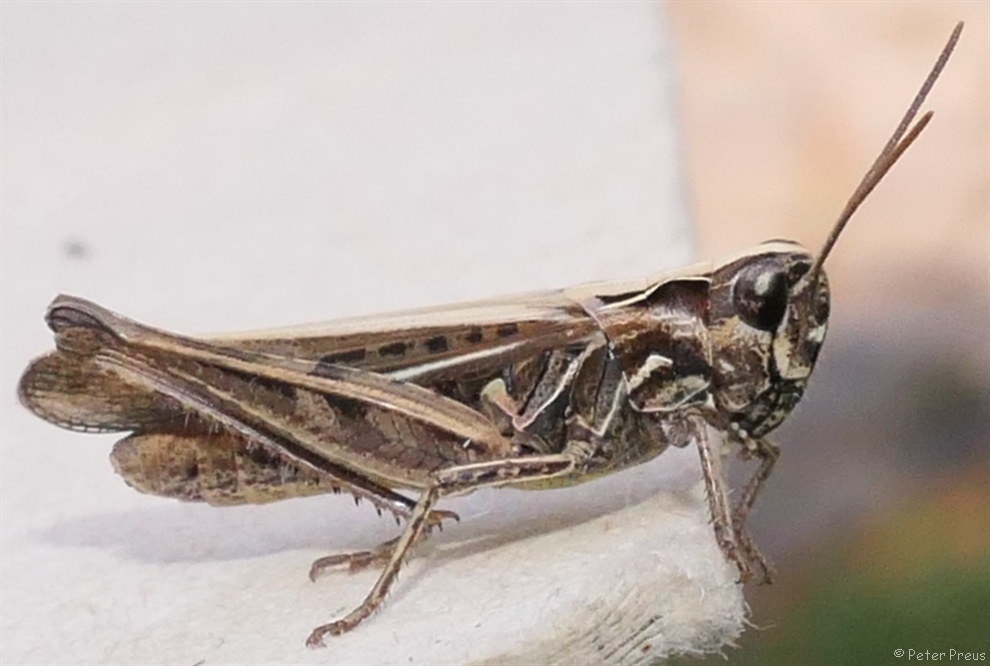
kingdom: Animalia
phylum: Arthropoda
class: Insecta
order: Orthoptera
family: Acrididae
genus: Chorthippus
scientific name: Chorthippus biguttulus
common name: Bow-winged grasshopper
